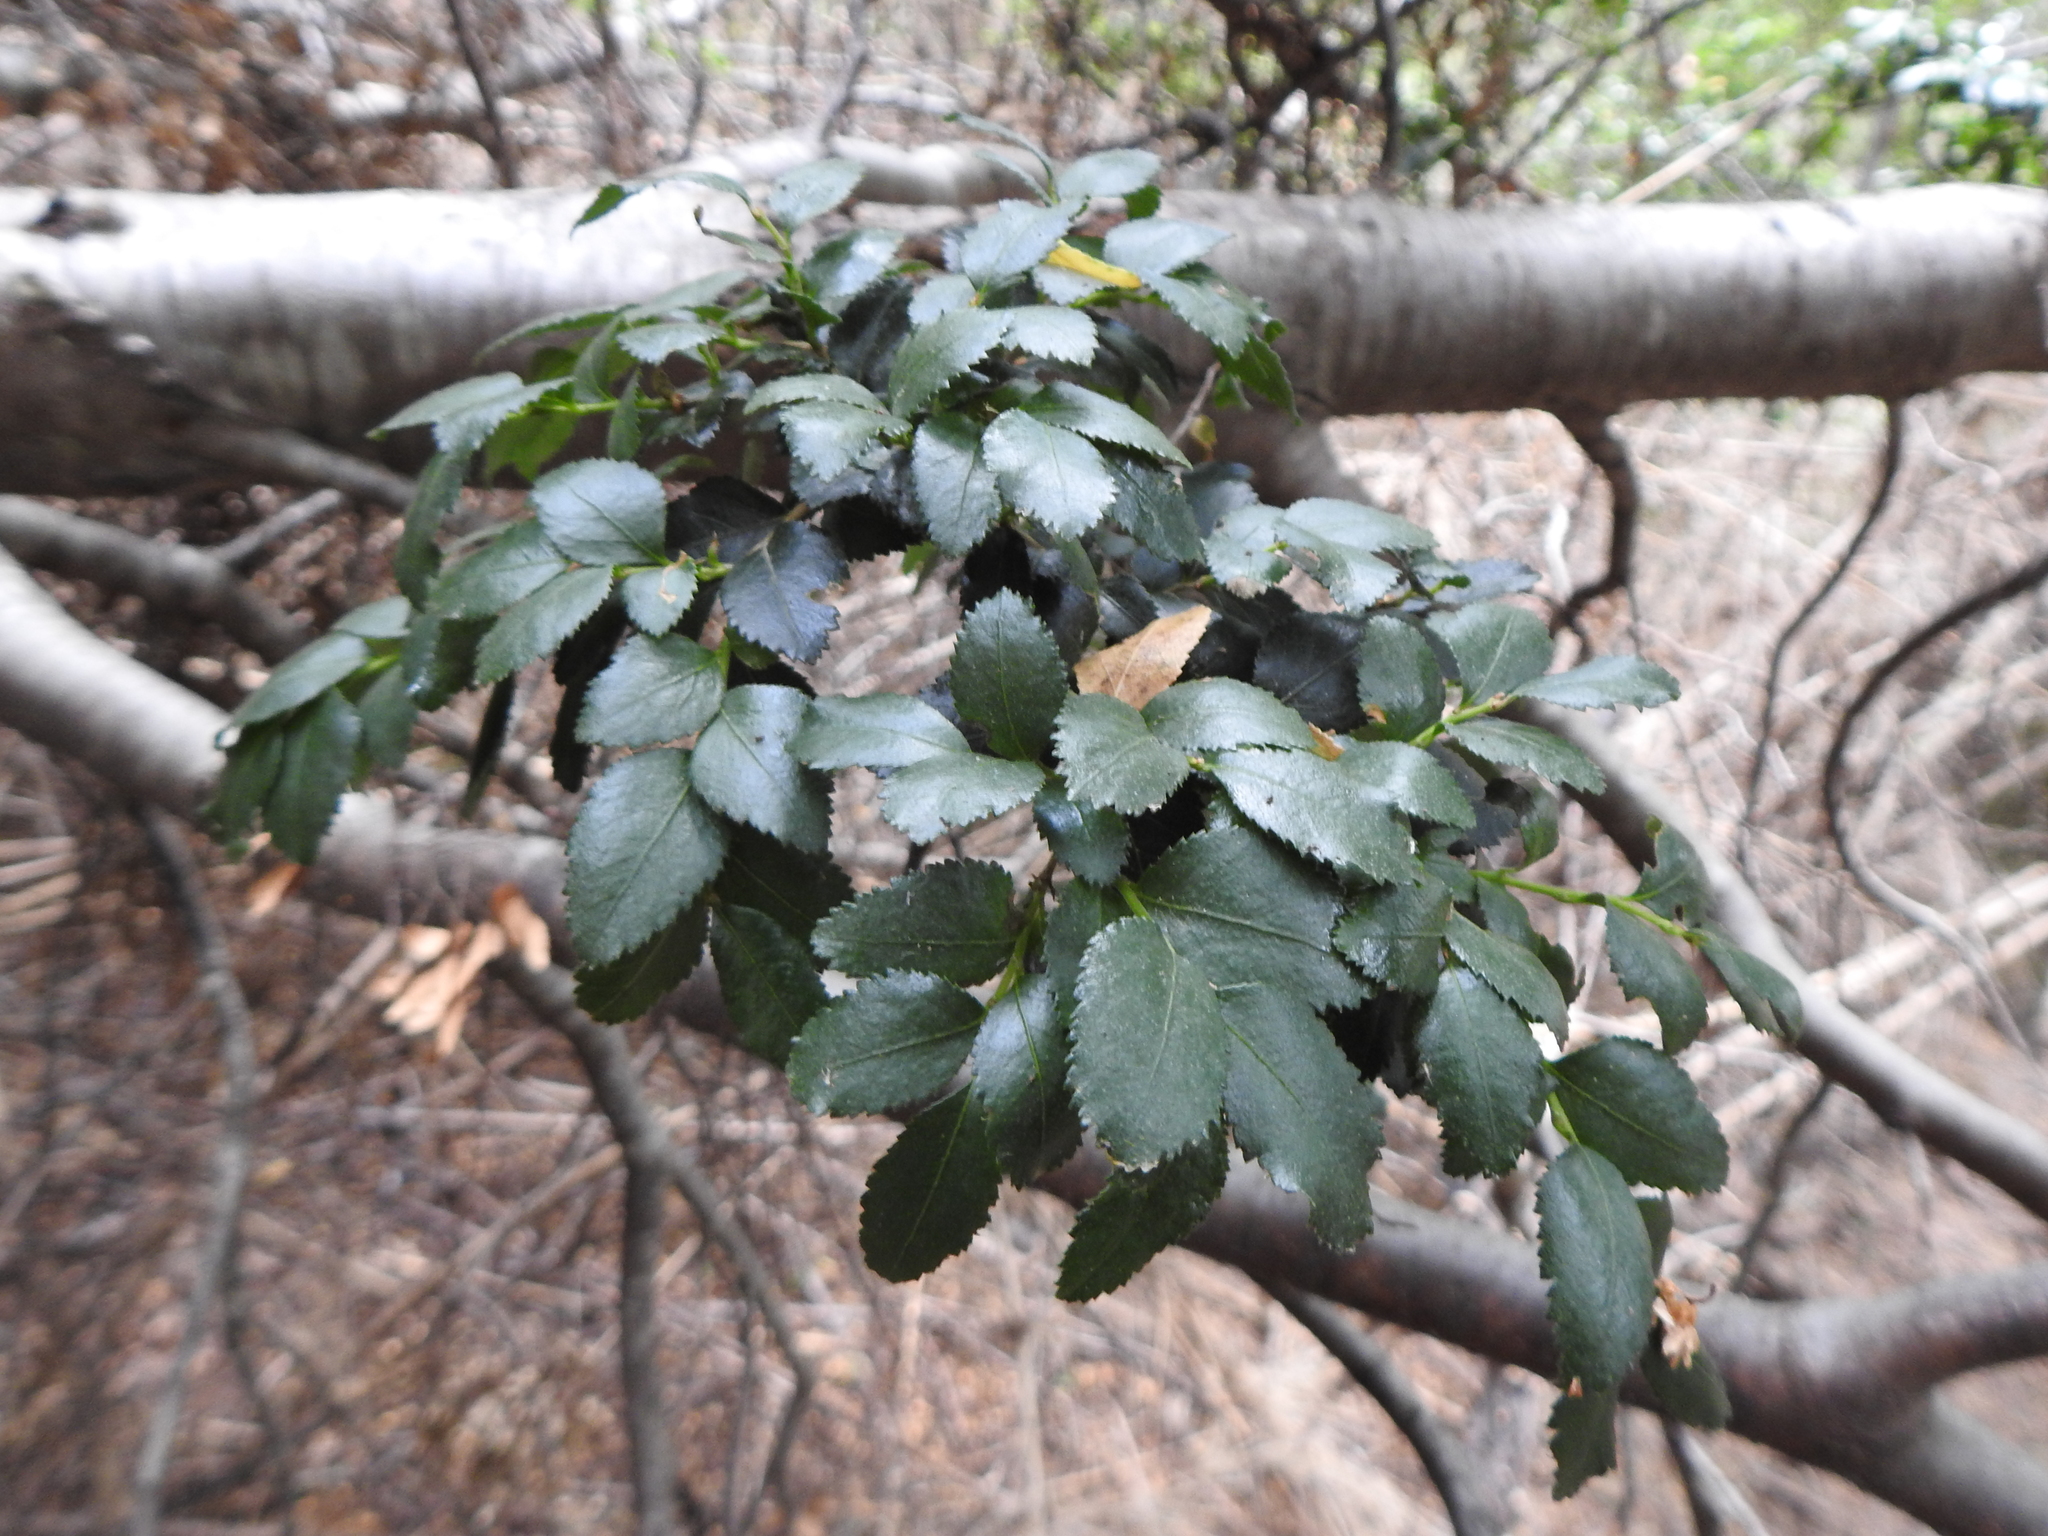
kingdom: Plantae
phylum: Tracheophyta
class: Magnoliopsida
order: Fagales
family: Nothofagaceae
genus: Nothofagus
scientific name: Nothofagus dombeyi
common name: Coigue
